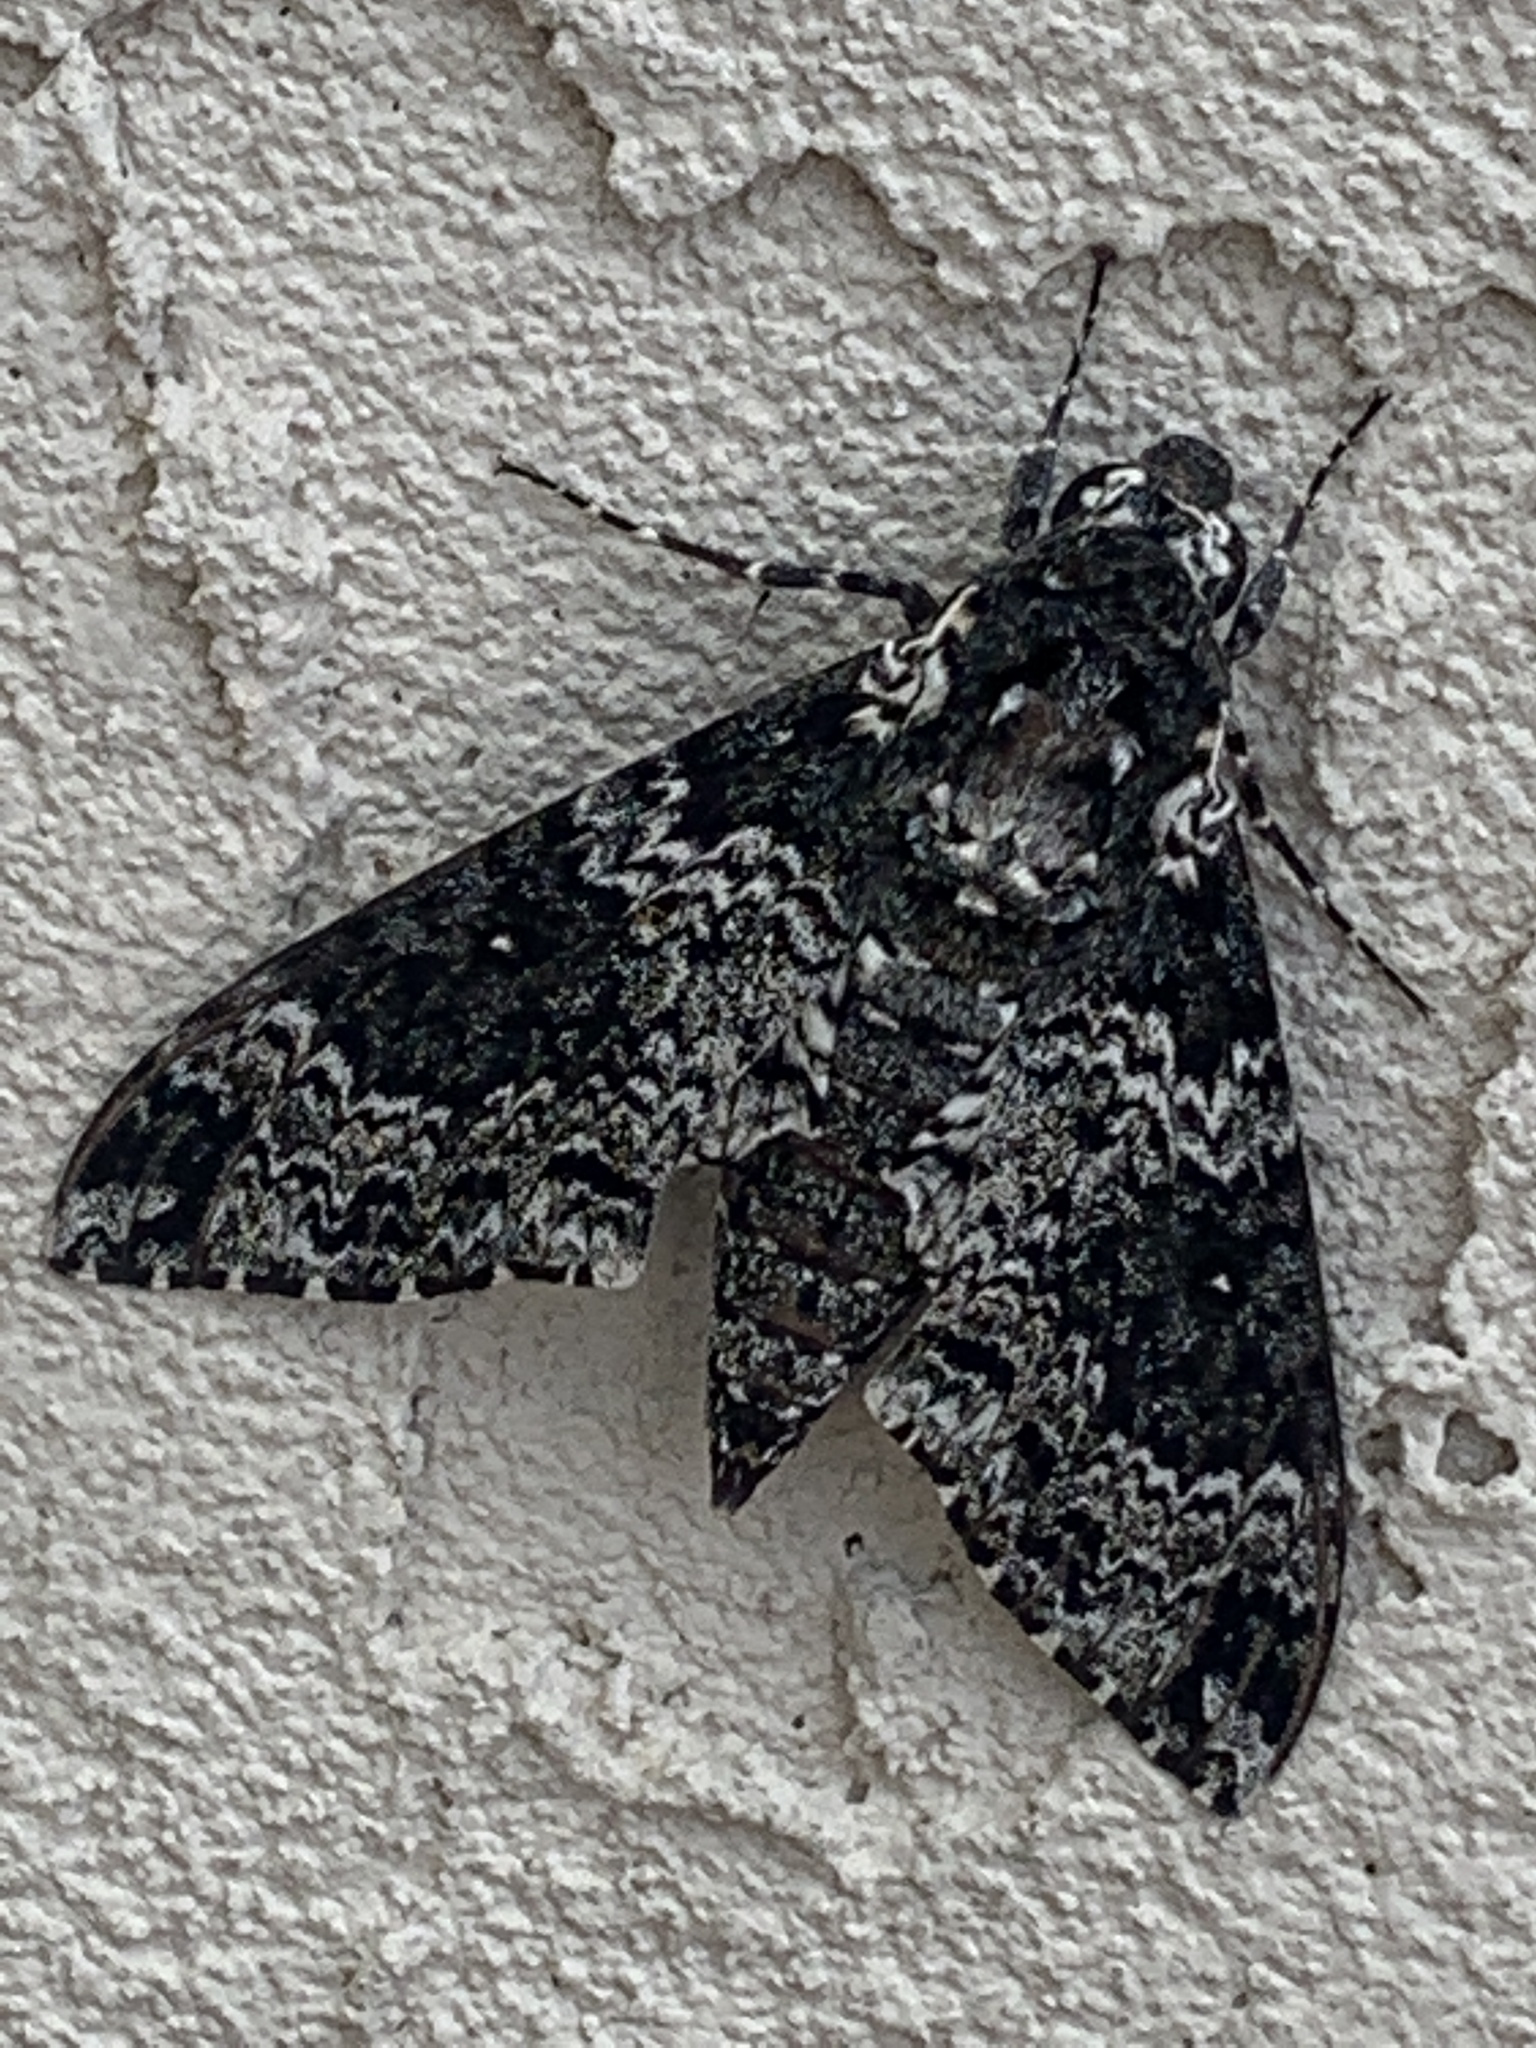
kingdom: Animalia
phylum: Arthropoda
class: Insecta
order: Lepidoptera
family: Sphingidae
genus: Manduca
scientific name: Manduca rustica
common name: Rustic sphinx
